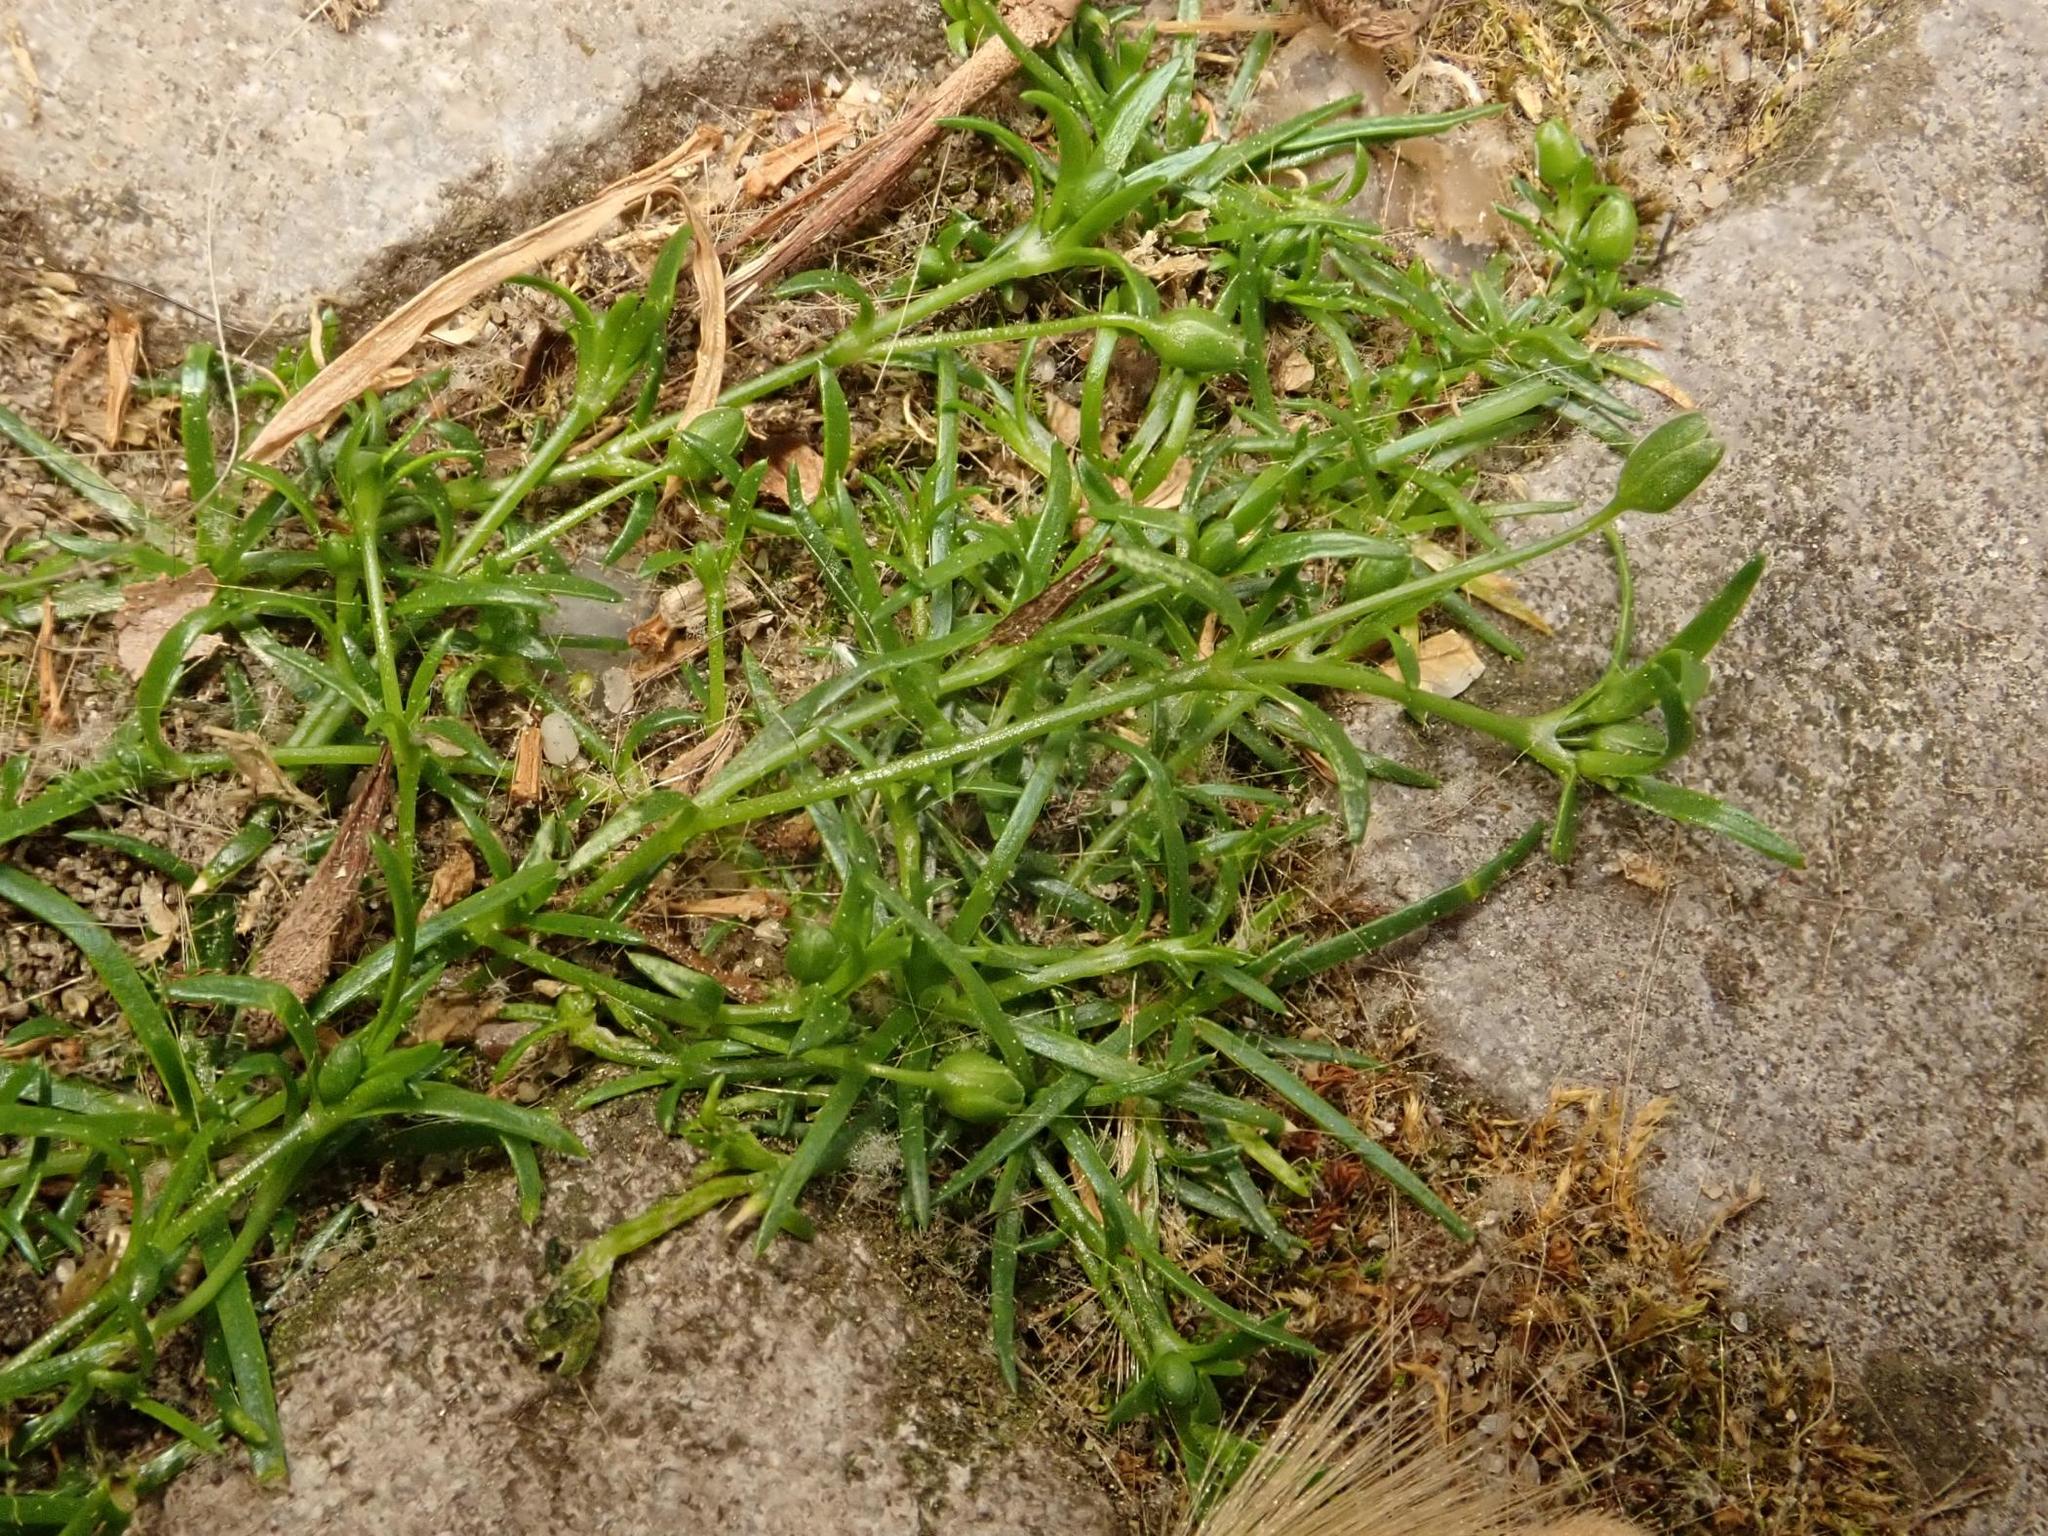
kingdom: Plantae
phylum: Tracheophyta
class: Magnoliopsida
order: Caryophyllales
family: Caryophyllaceae
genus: Sagina
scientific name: Sagina procumbens
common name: Procumbent pearlwort
